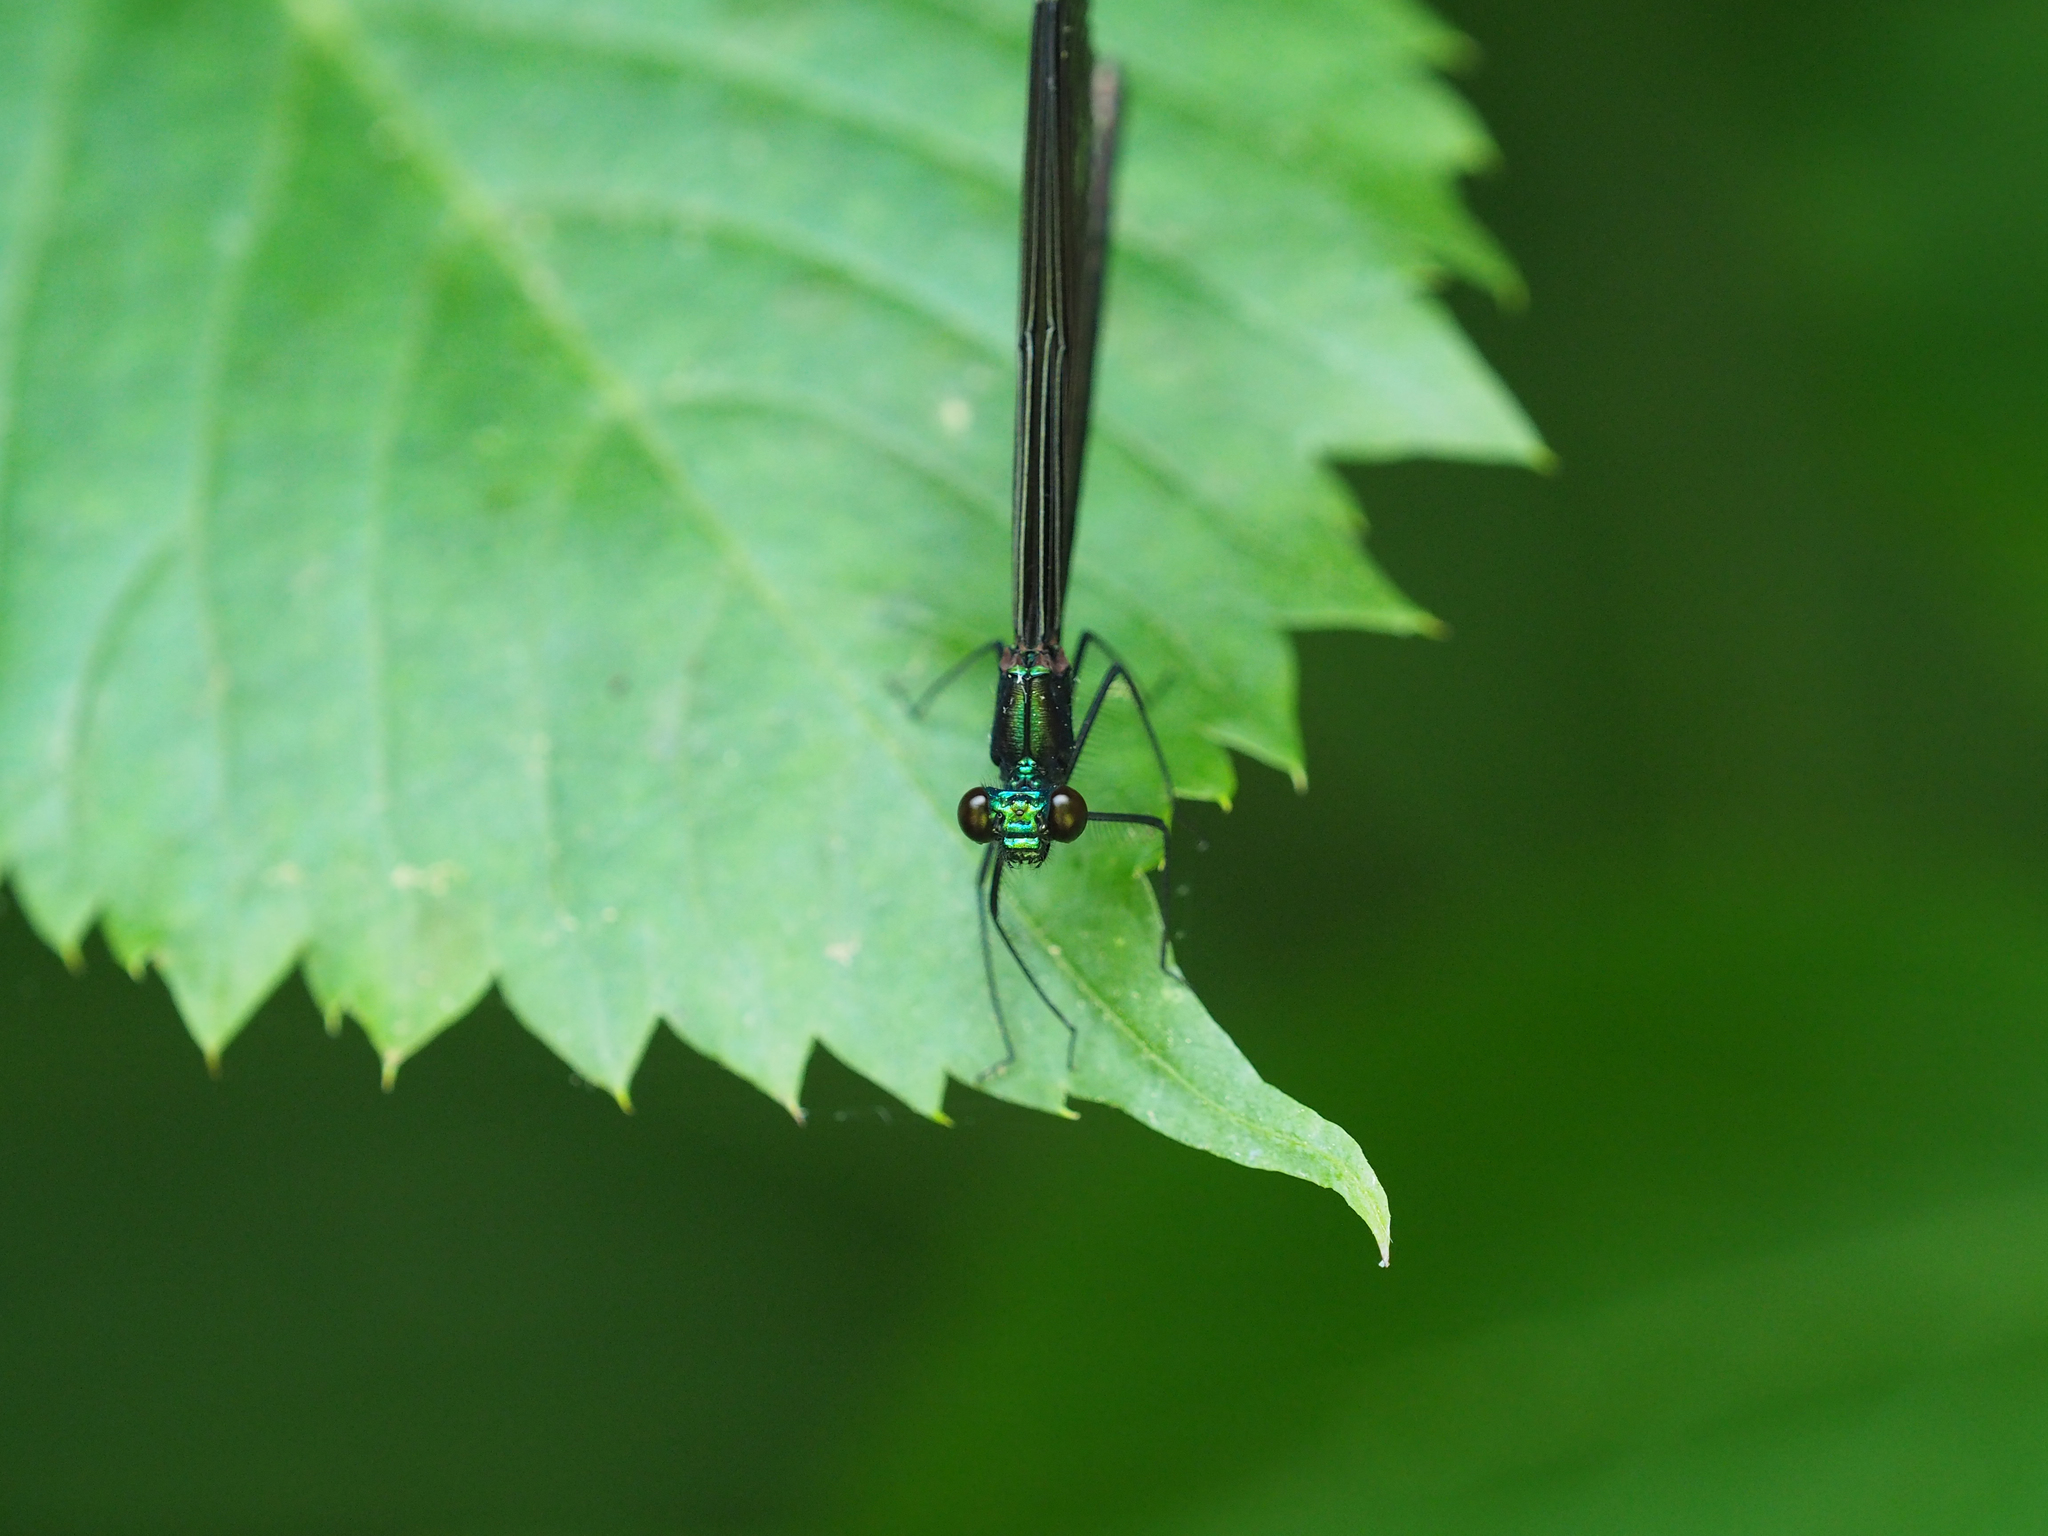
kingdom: Animalia
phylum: Arthropoda
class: Insecta
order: Odonata
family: Calopterygidae
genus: Calopteryx
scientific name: Calopteryx maculata
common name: Ebony jewelwing
